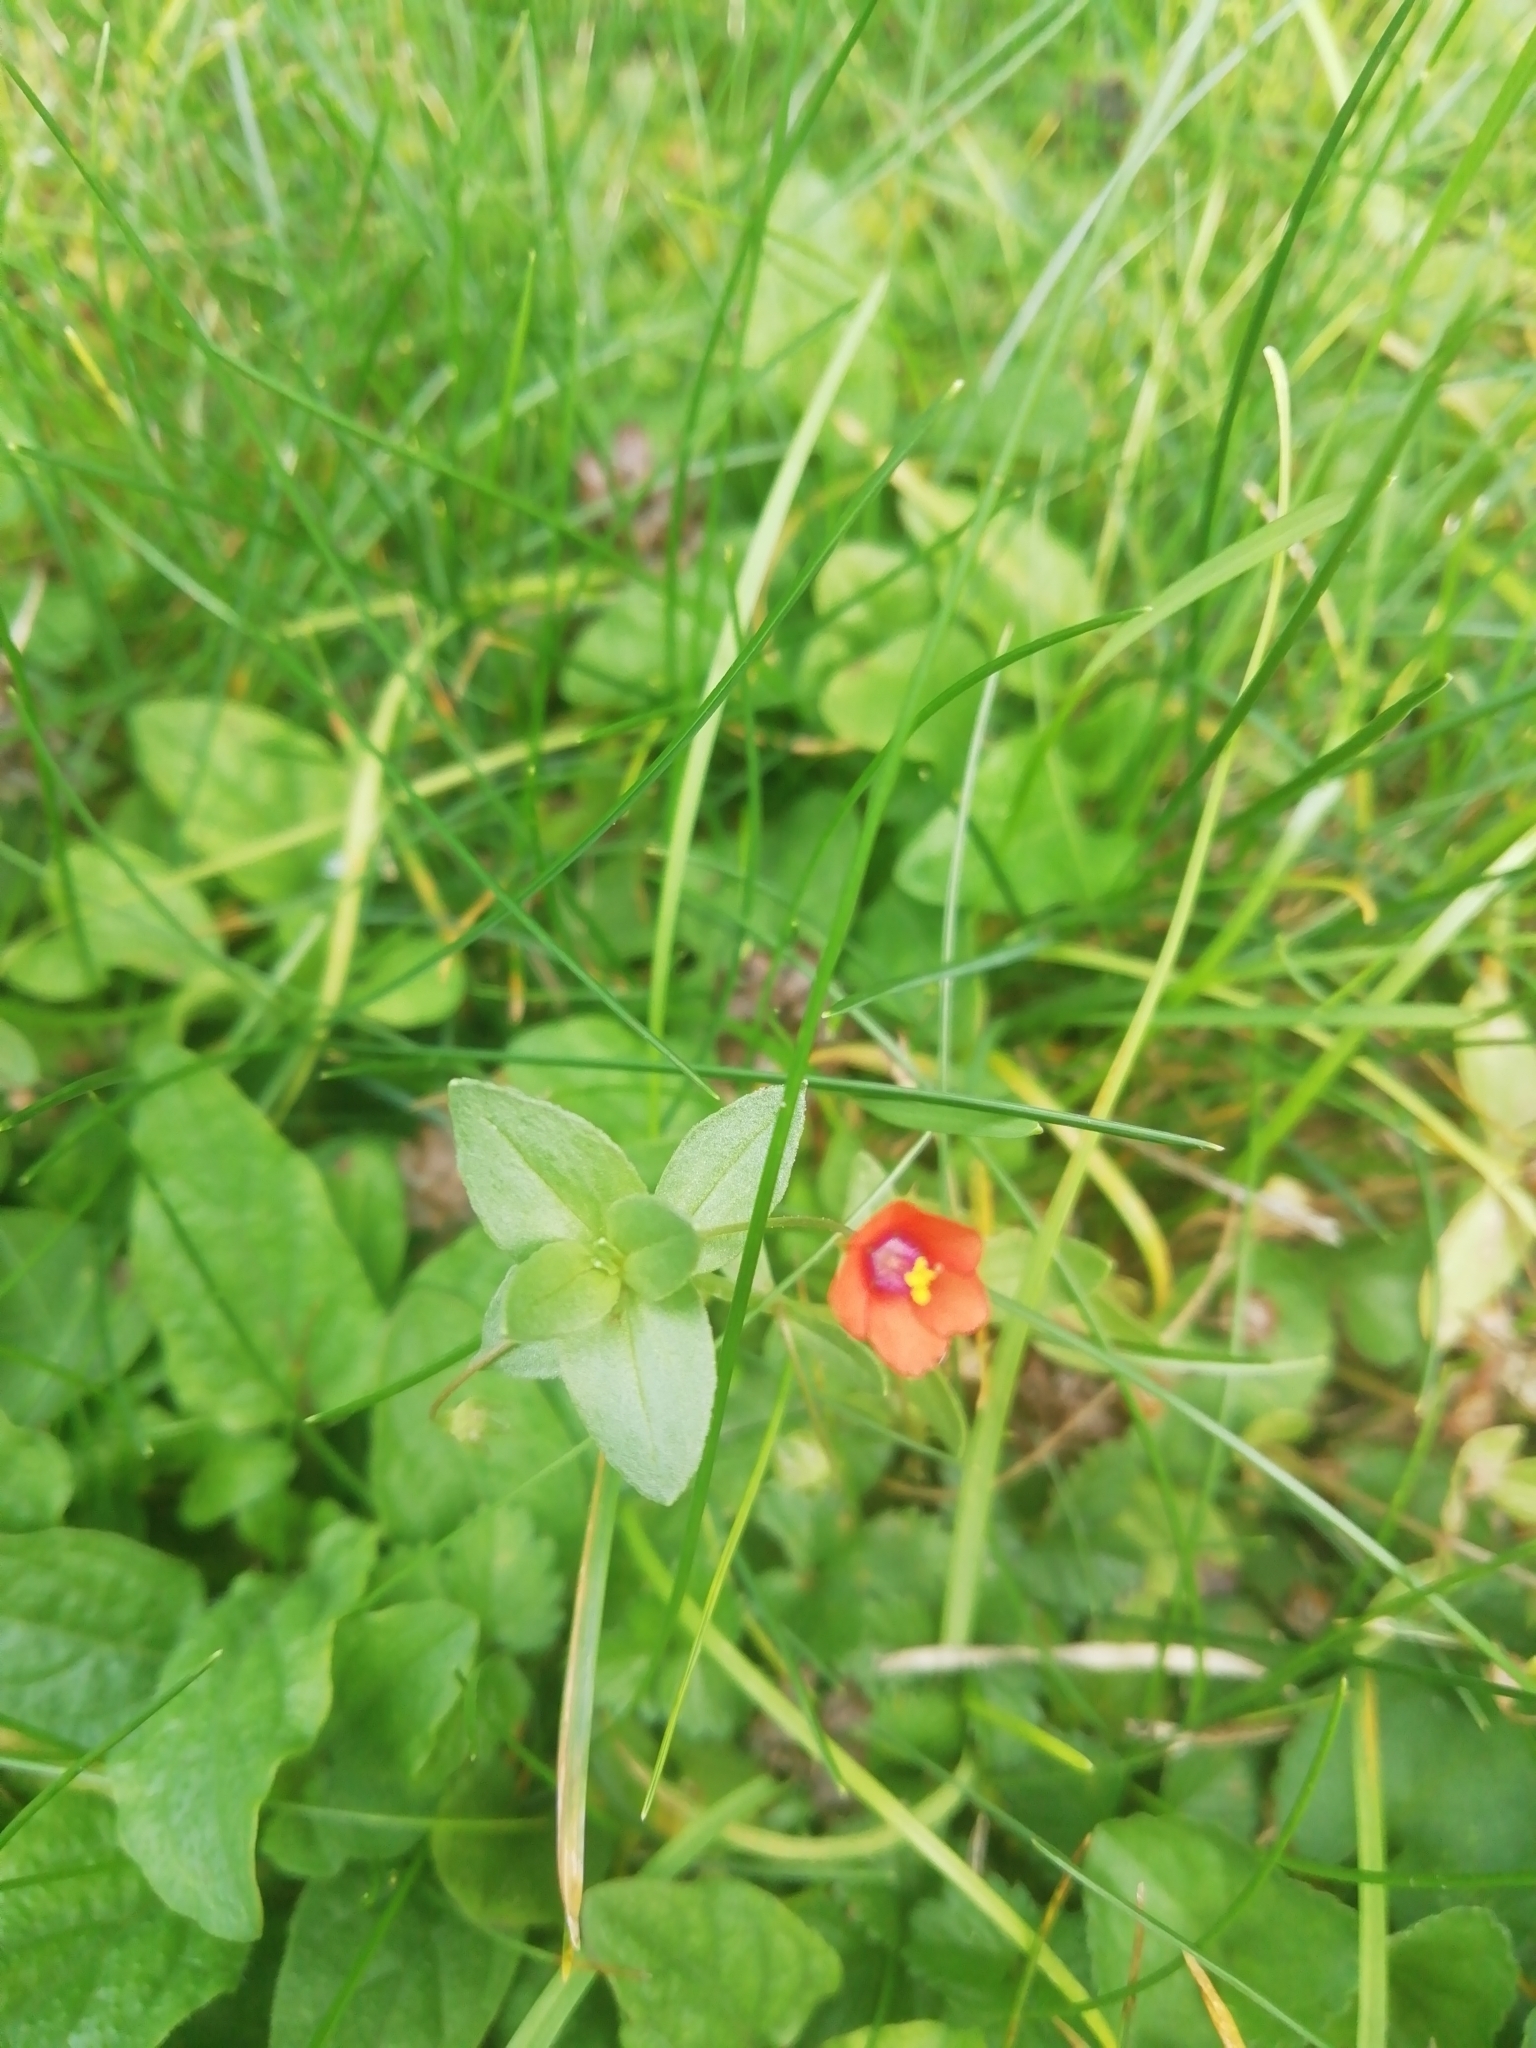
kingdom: Plantae
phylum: Tracheophyta
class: Magnoliopsida
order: Ericales
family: Primulaceae
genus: Lysimachia
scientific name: Lysimachia arvensis
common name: Scarlet pimpernel
